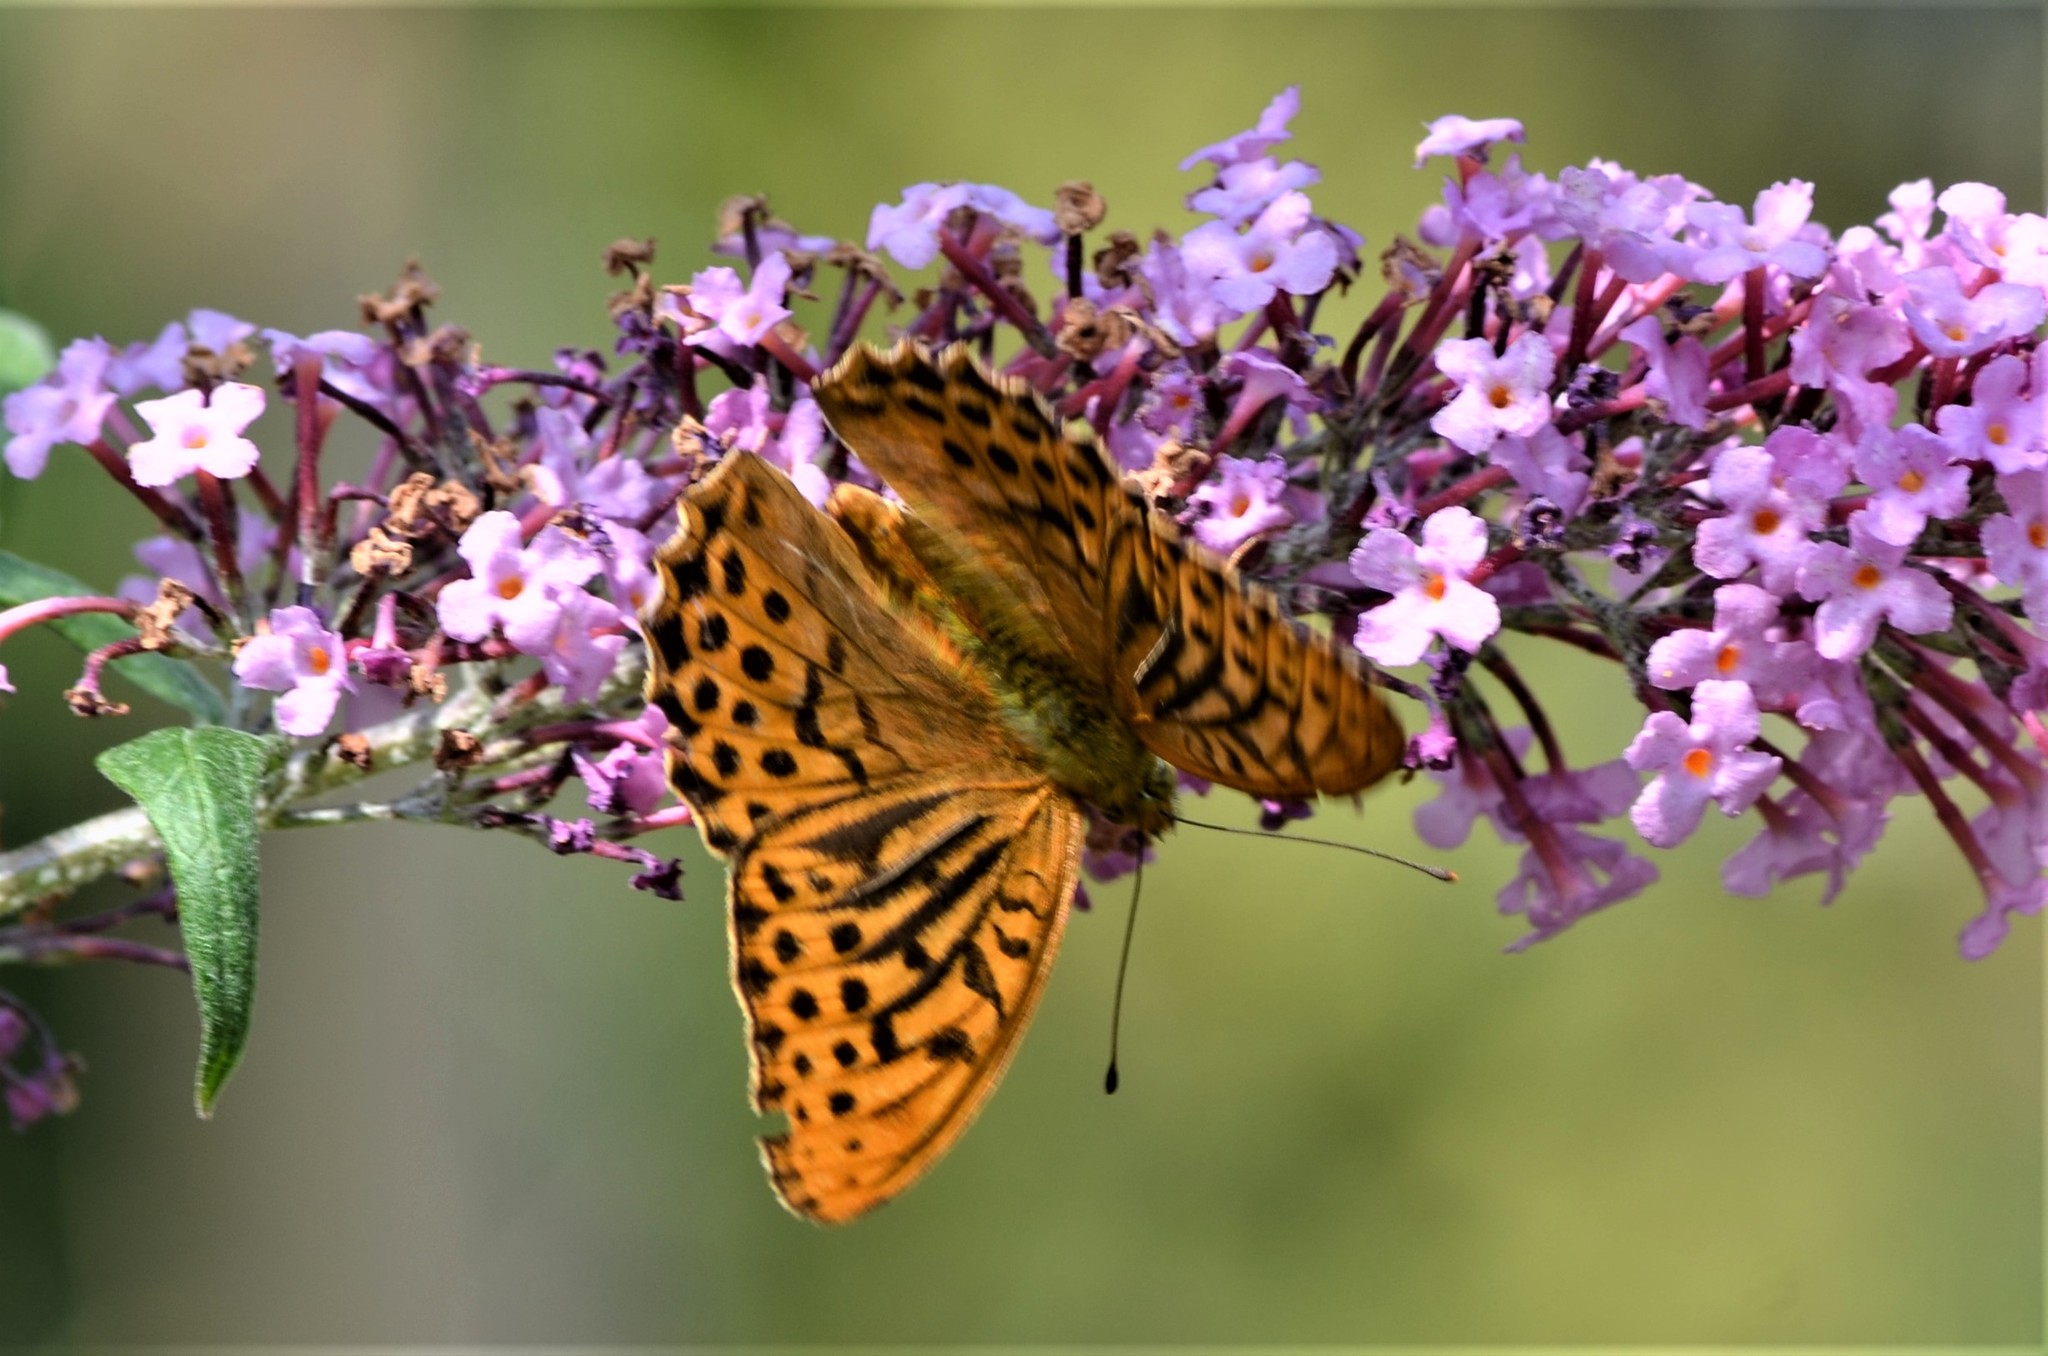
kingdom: Animalia
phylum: Arthropoda
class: Insecta
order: Lepidoptera
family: Nymphalidae
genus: Argynnis
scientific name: Argynnis paphia
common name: Silver-washed fritillary
